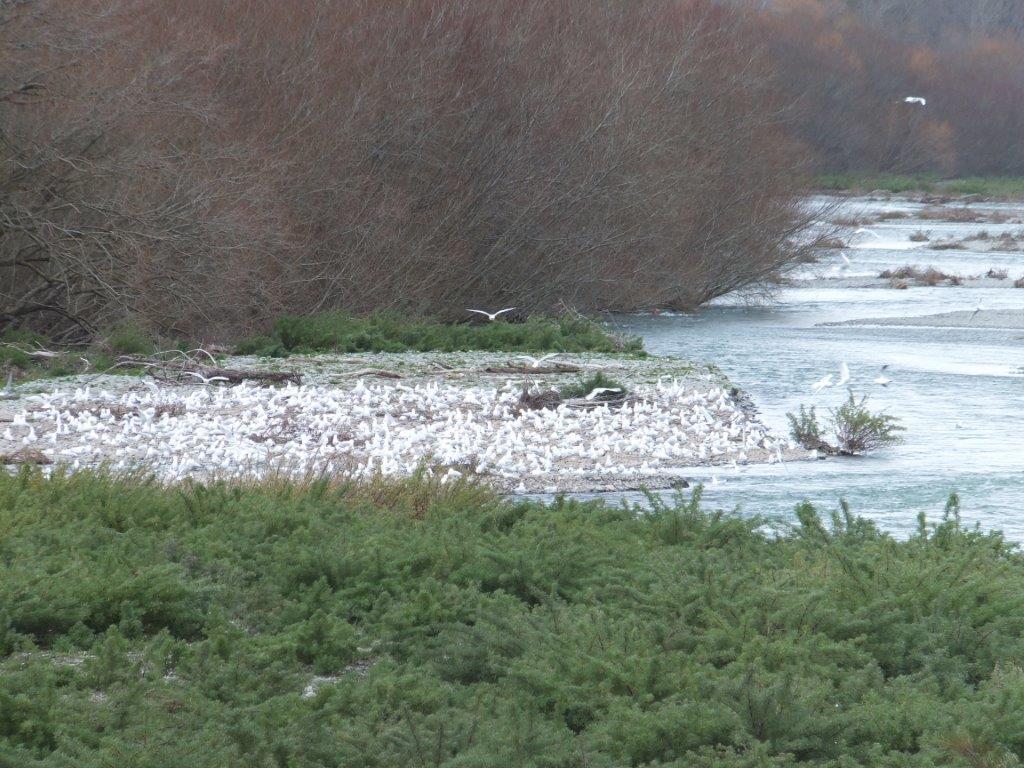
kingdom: Animalia
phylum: Chordata
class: Aves
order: Charadriiformes
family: Laridae
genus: Chroicocephalus
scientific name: Chroicocephalus bulleri
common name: Black-billed gull
